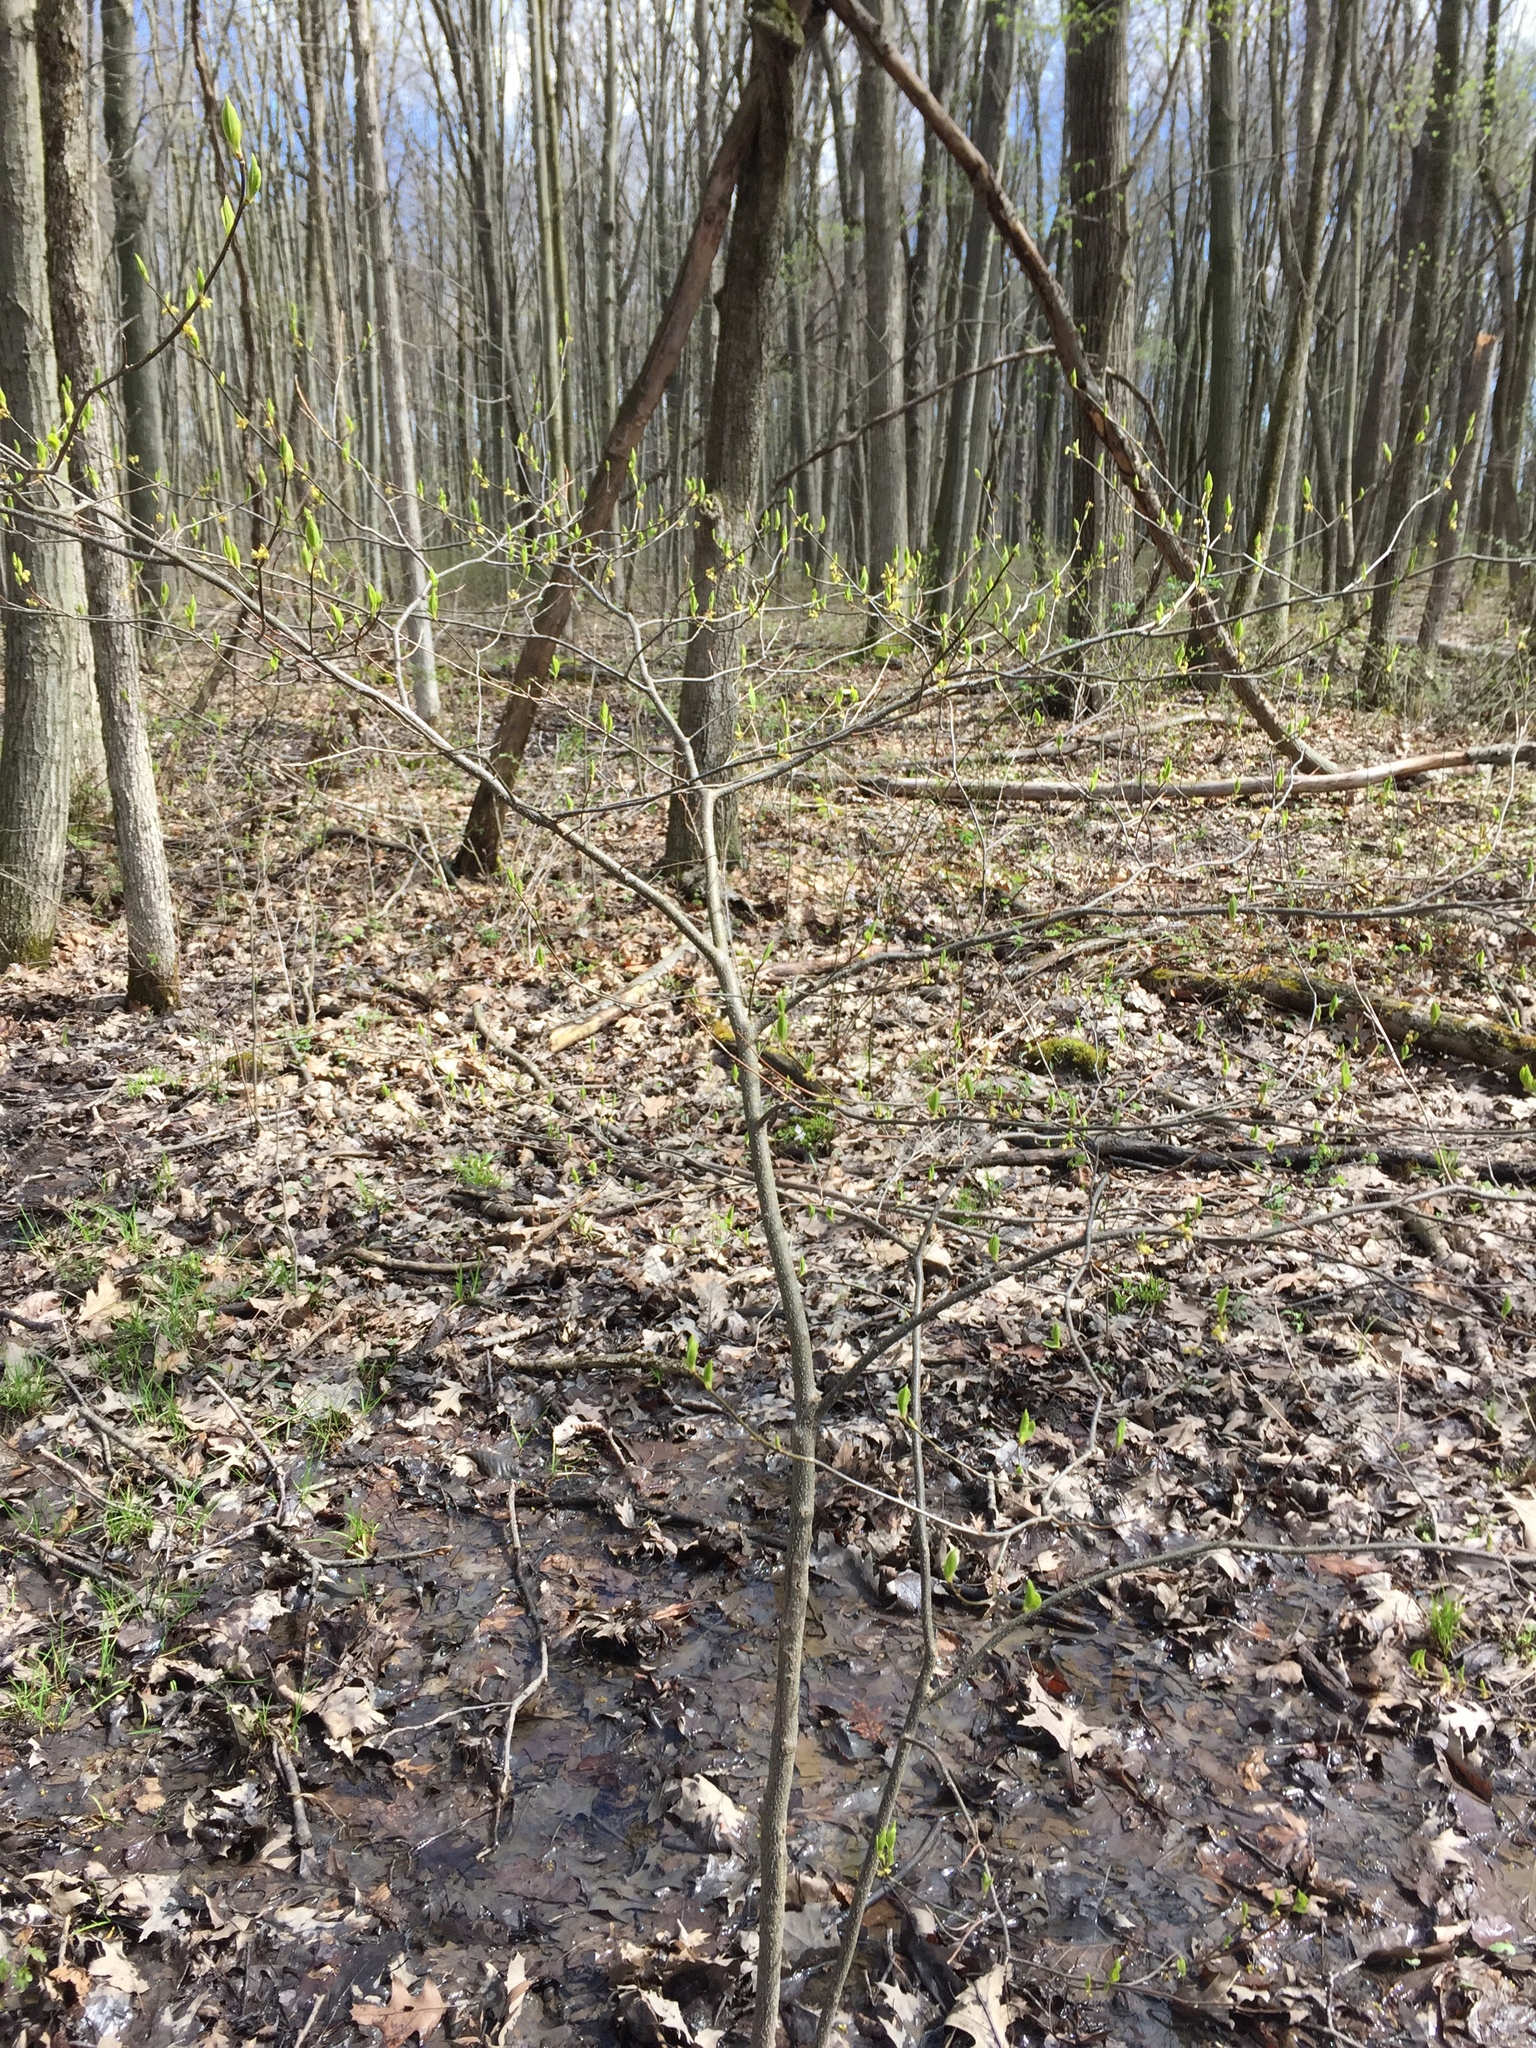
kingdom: Plantae
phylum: Tracheophyta
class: Magnoliopsida
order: Laurales
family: Lauraceae
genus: Lindera
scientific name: Lindera benzoin
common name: Spicebush
